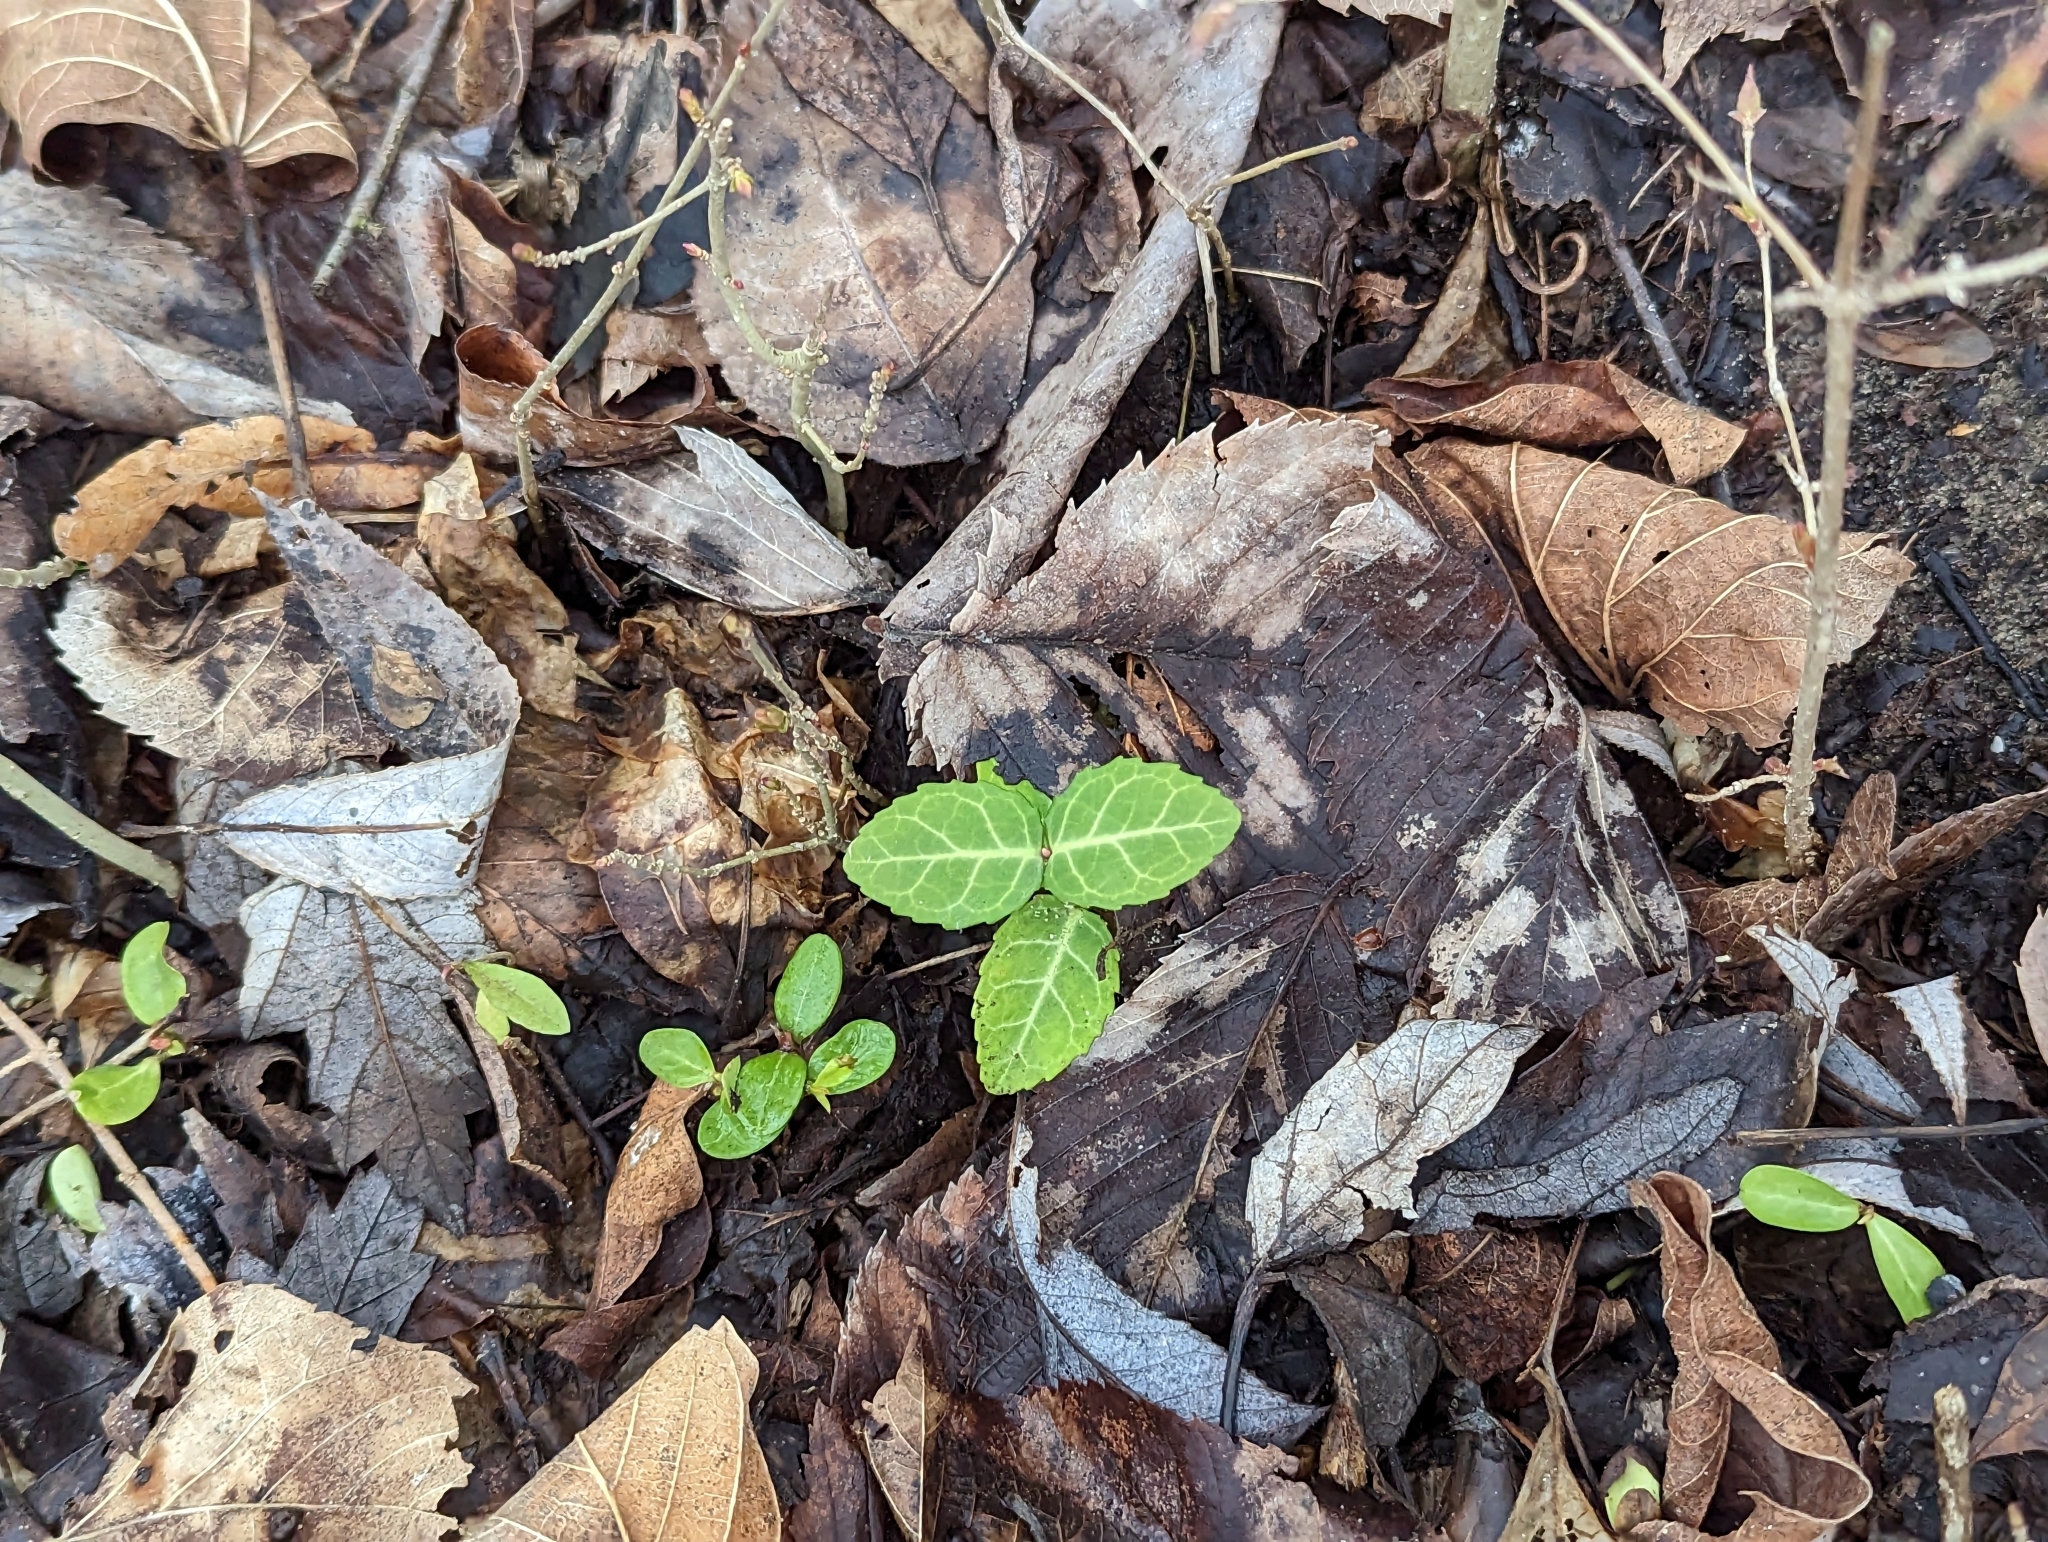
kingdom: Plantae
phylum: Tracheophyta
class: Magnoliopsida
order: Celastrales
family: Celastraceae
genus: Euonymus
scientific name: Euonymus fortunei
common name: Climbing euonymus
